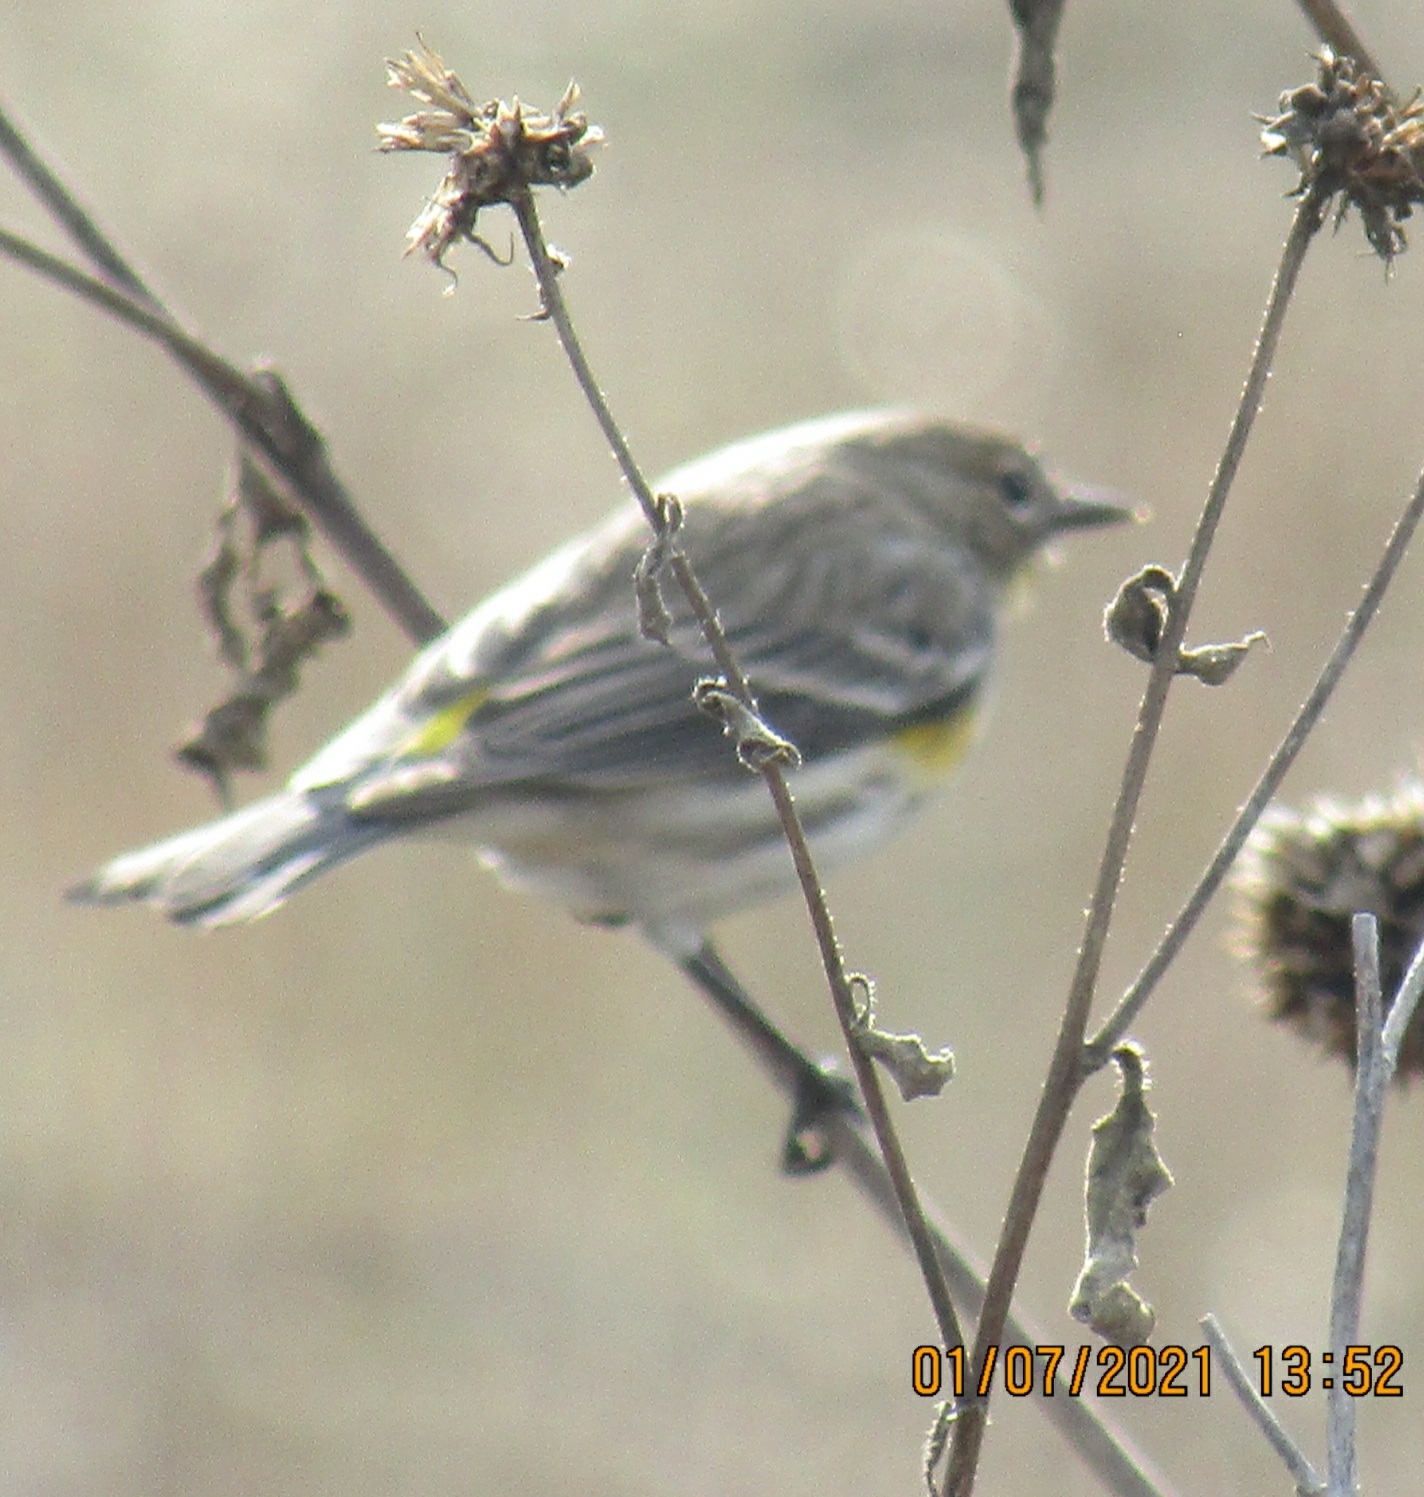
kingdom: Animalia
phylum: Chordata
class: Aves
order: Passeriformes
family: Parulidae
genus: Setophaga
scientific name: Setophaga coronata
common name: Myrtle warbler
